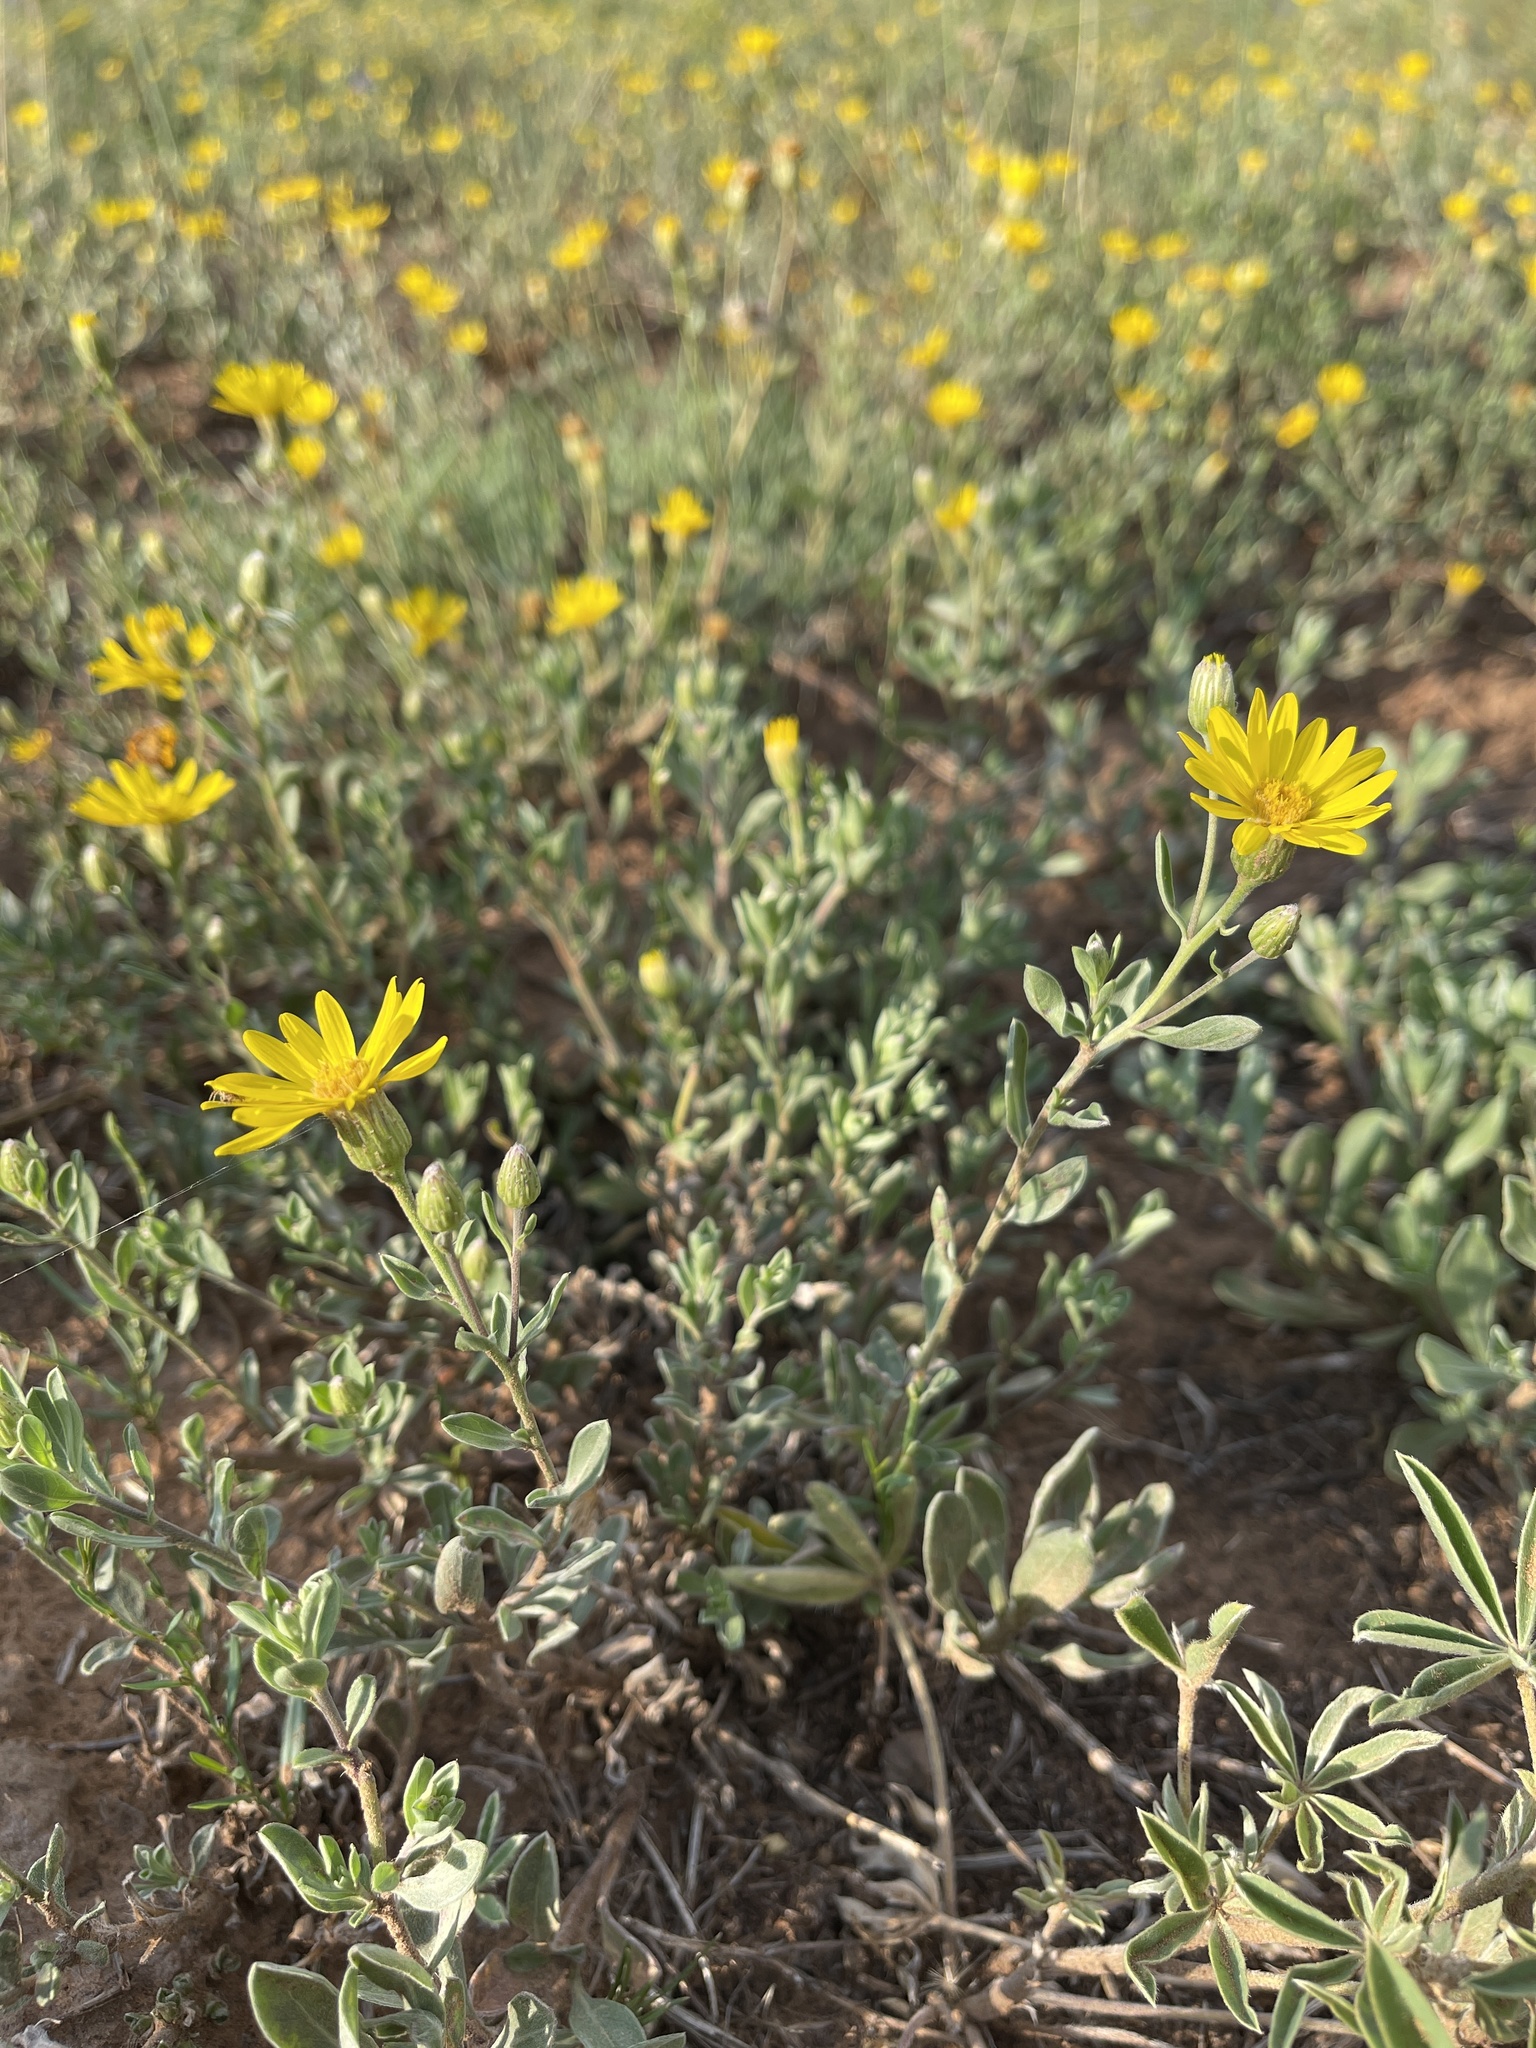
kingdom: Plantae
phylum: Tracheophyta
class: Magnoliopsida
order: Asterales
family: Asteraceae
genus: Heterotheca
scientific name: Heterotheca pedunculata
